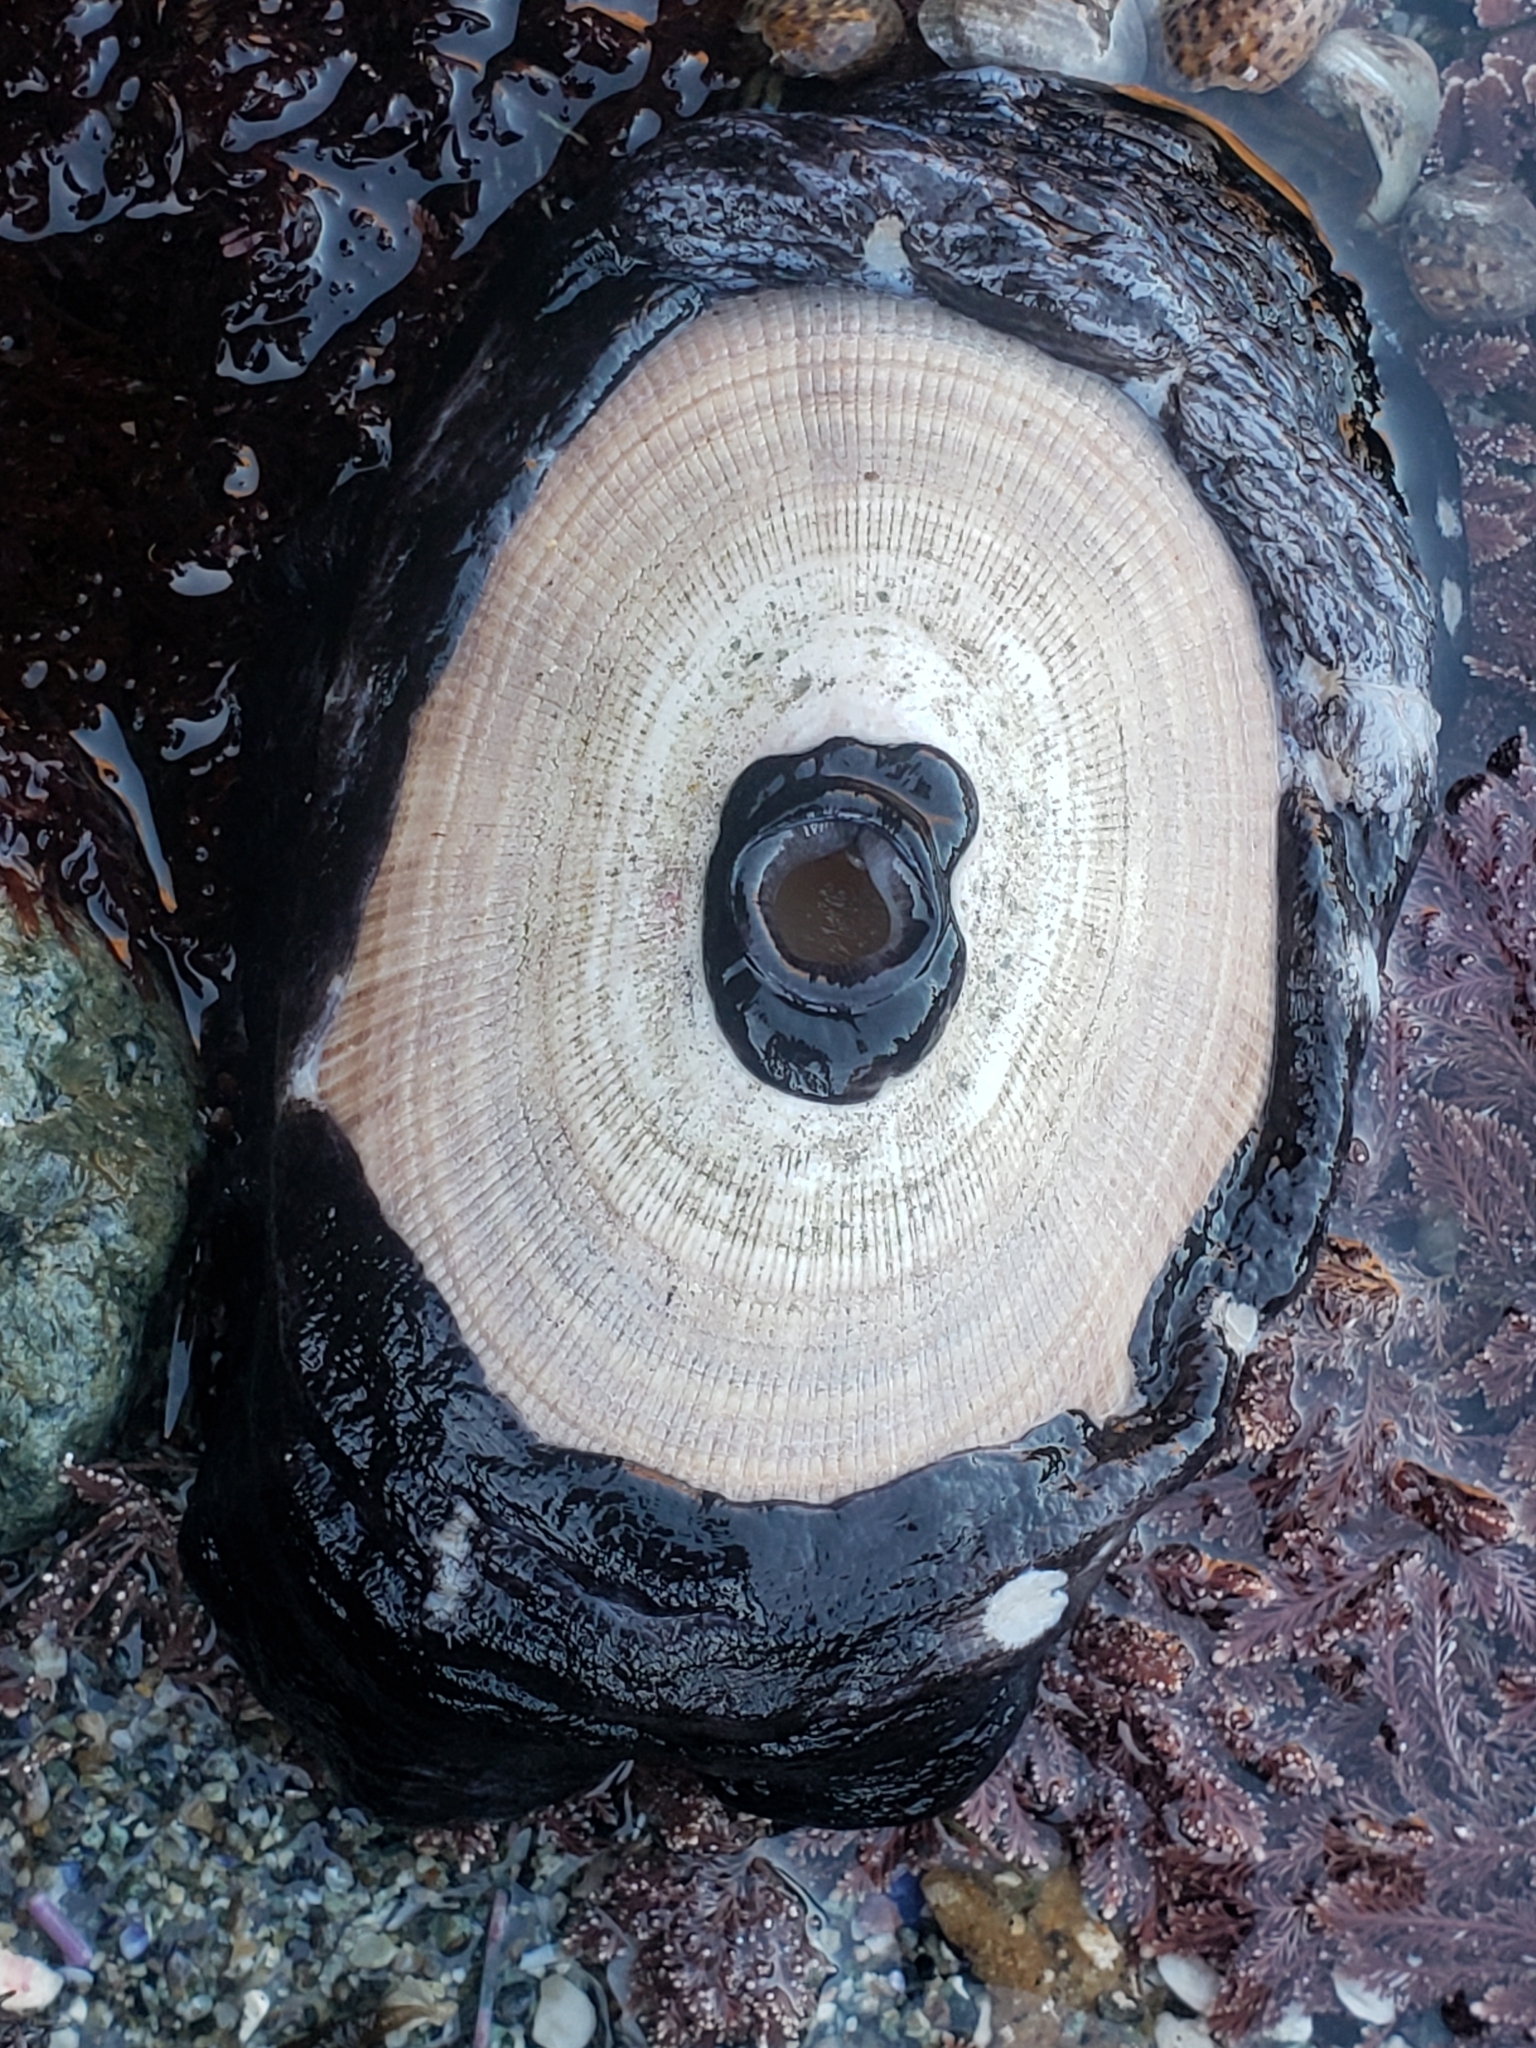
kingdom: Animalia
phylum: Mollusca
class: Gastropoda
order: Lepetellida
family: Fissurellidae
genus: Megathura
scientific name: Megathura crenulata
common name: Giant keyhole limpet
